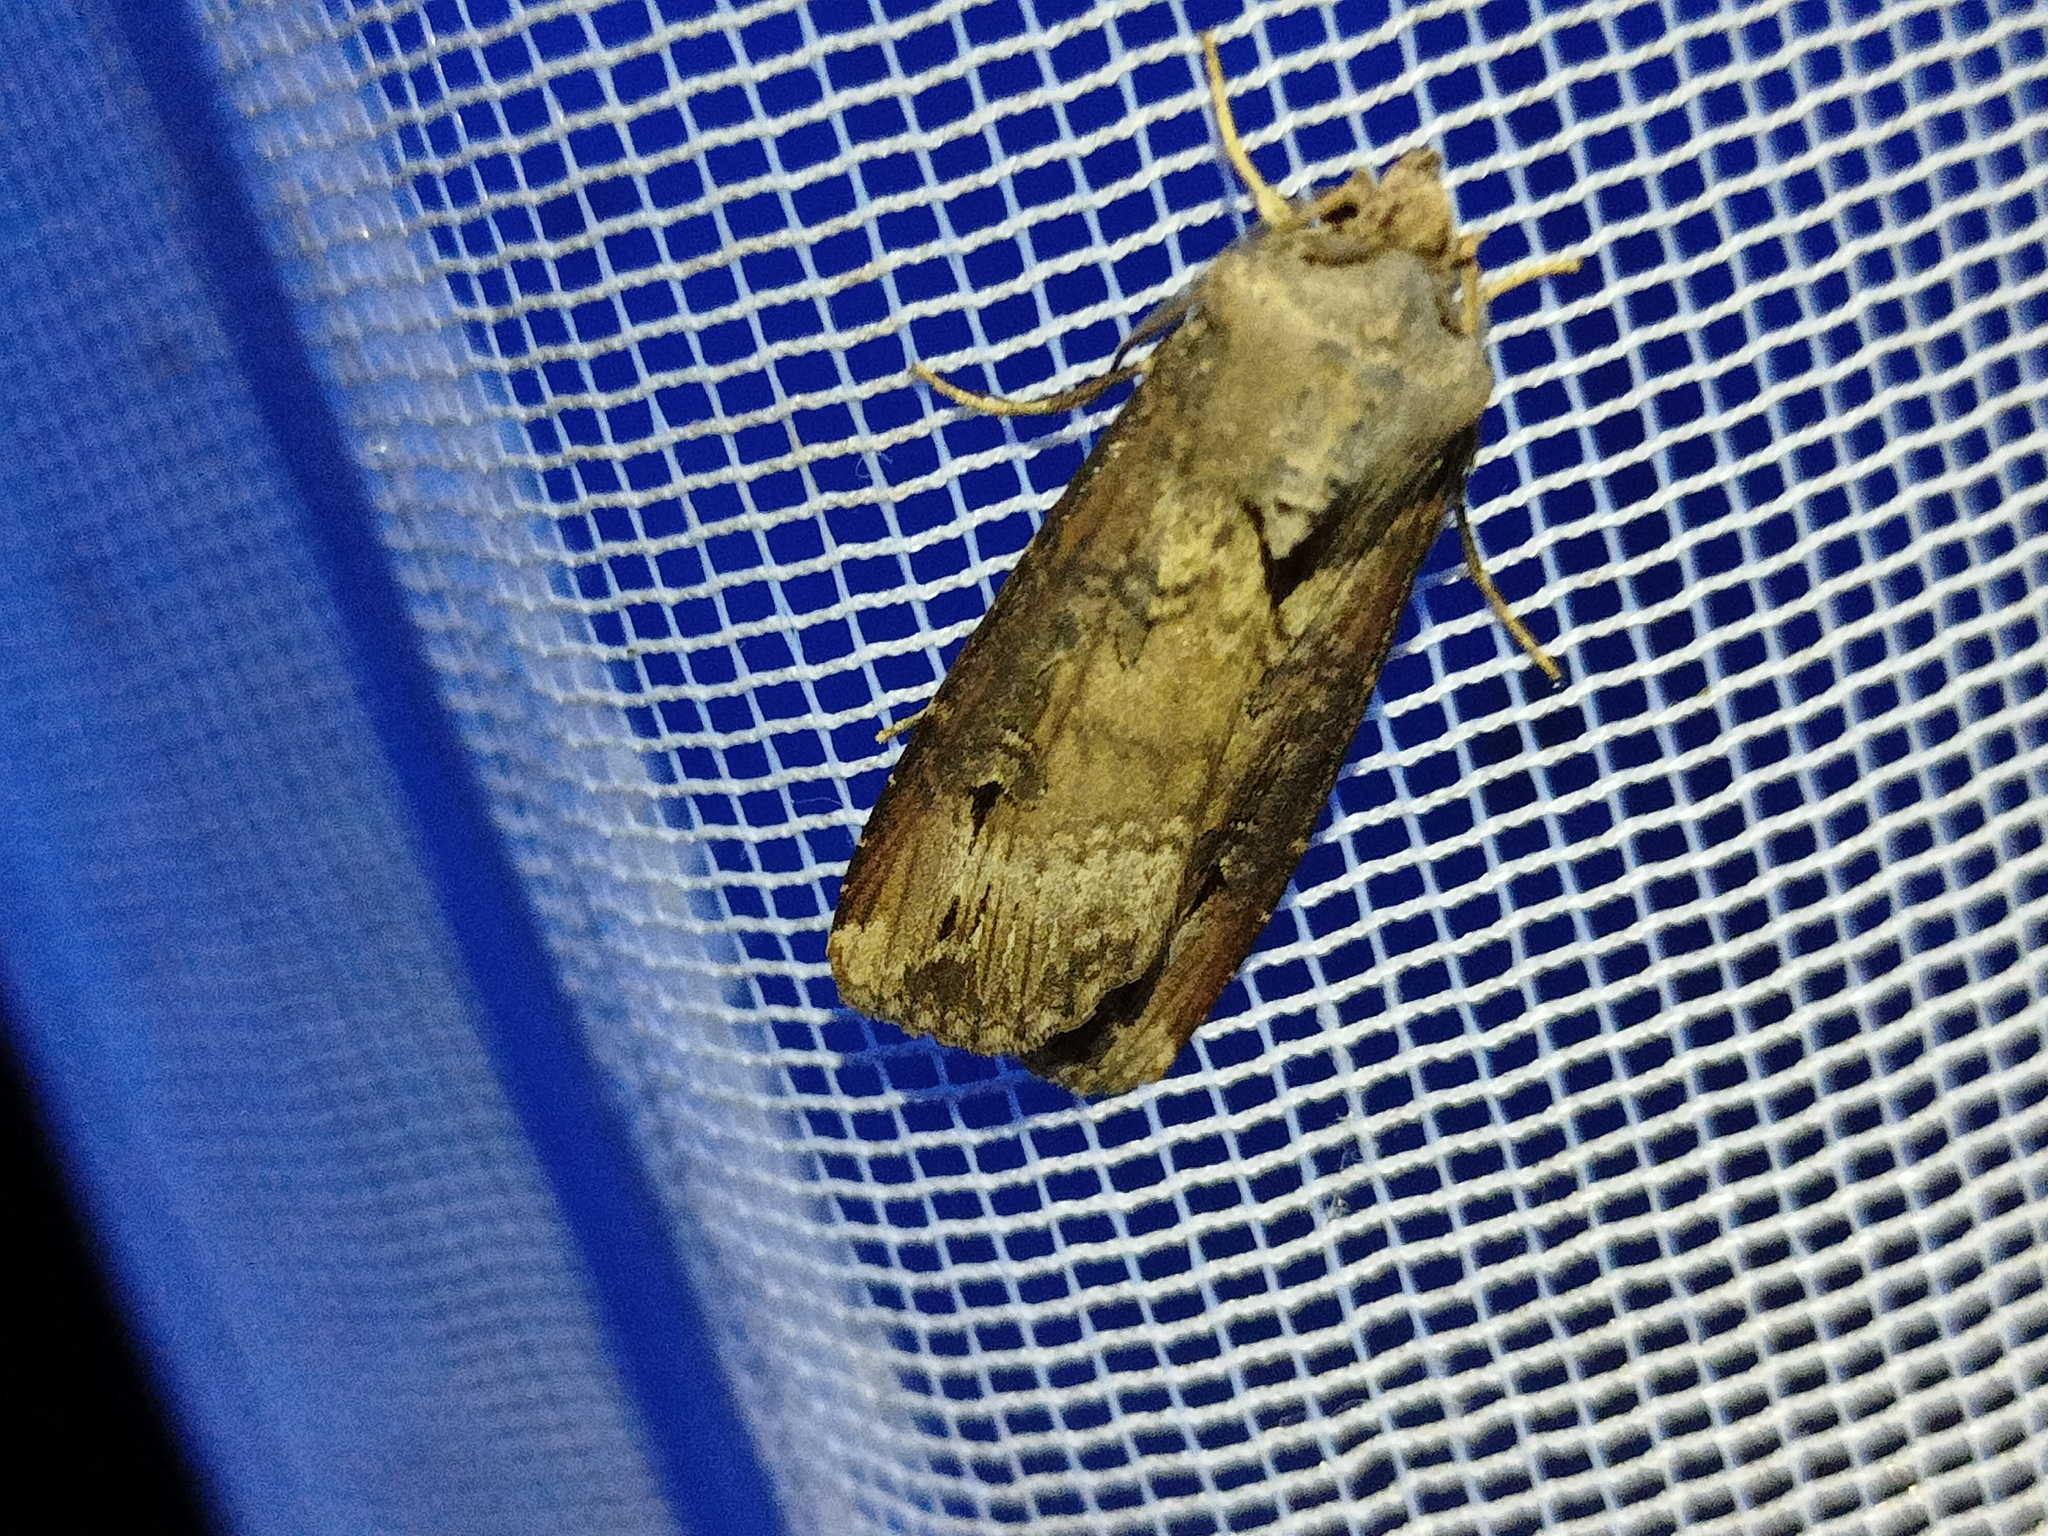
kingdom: Animalia
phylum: Arthropoda
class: Insecta
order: Lepidoptera
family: Noctuidae
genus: Agrotis
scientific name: Agrotis ipsilon
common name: Dark sword-grass
